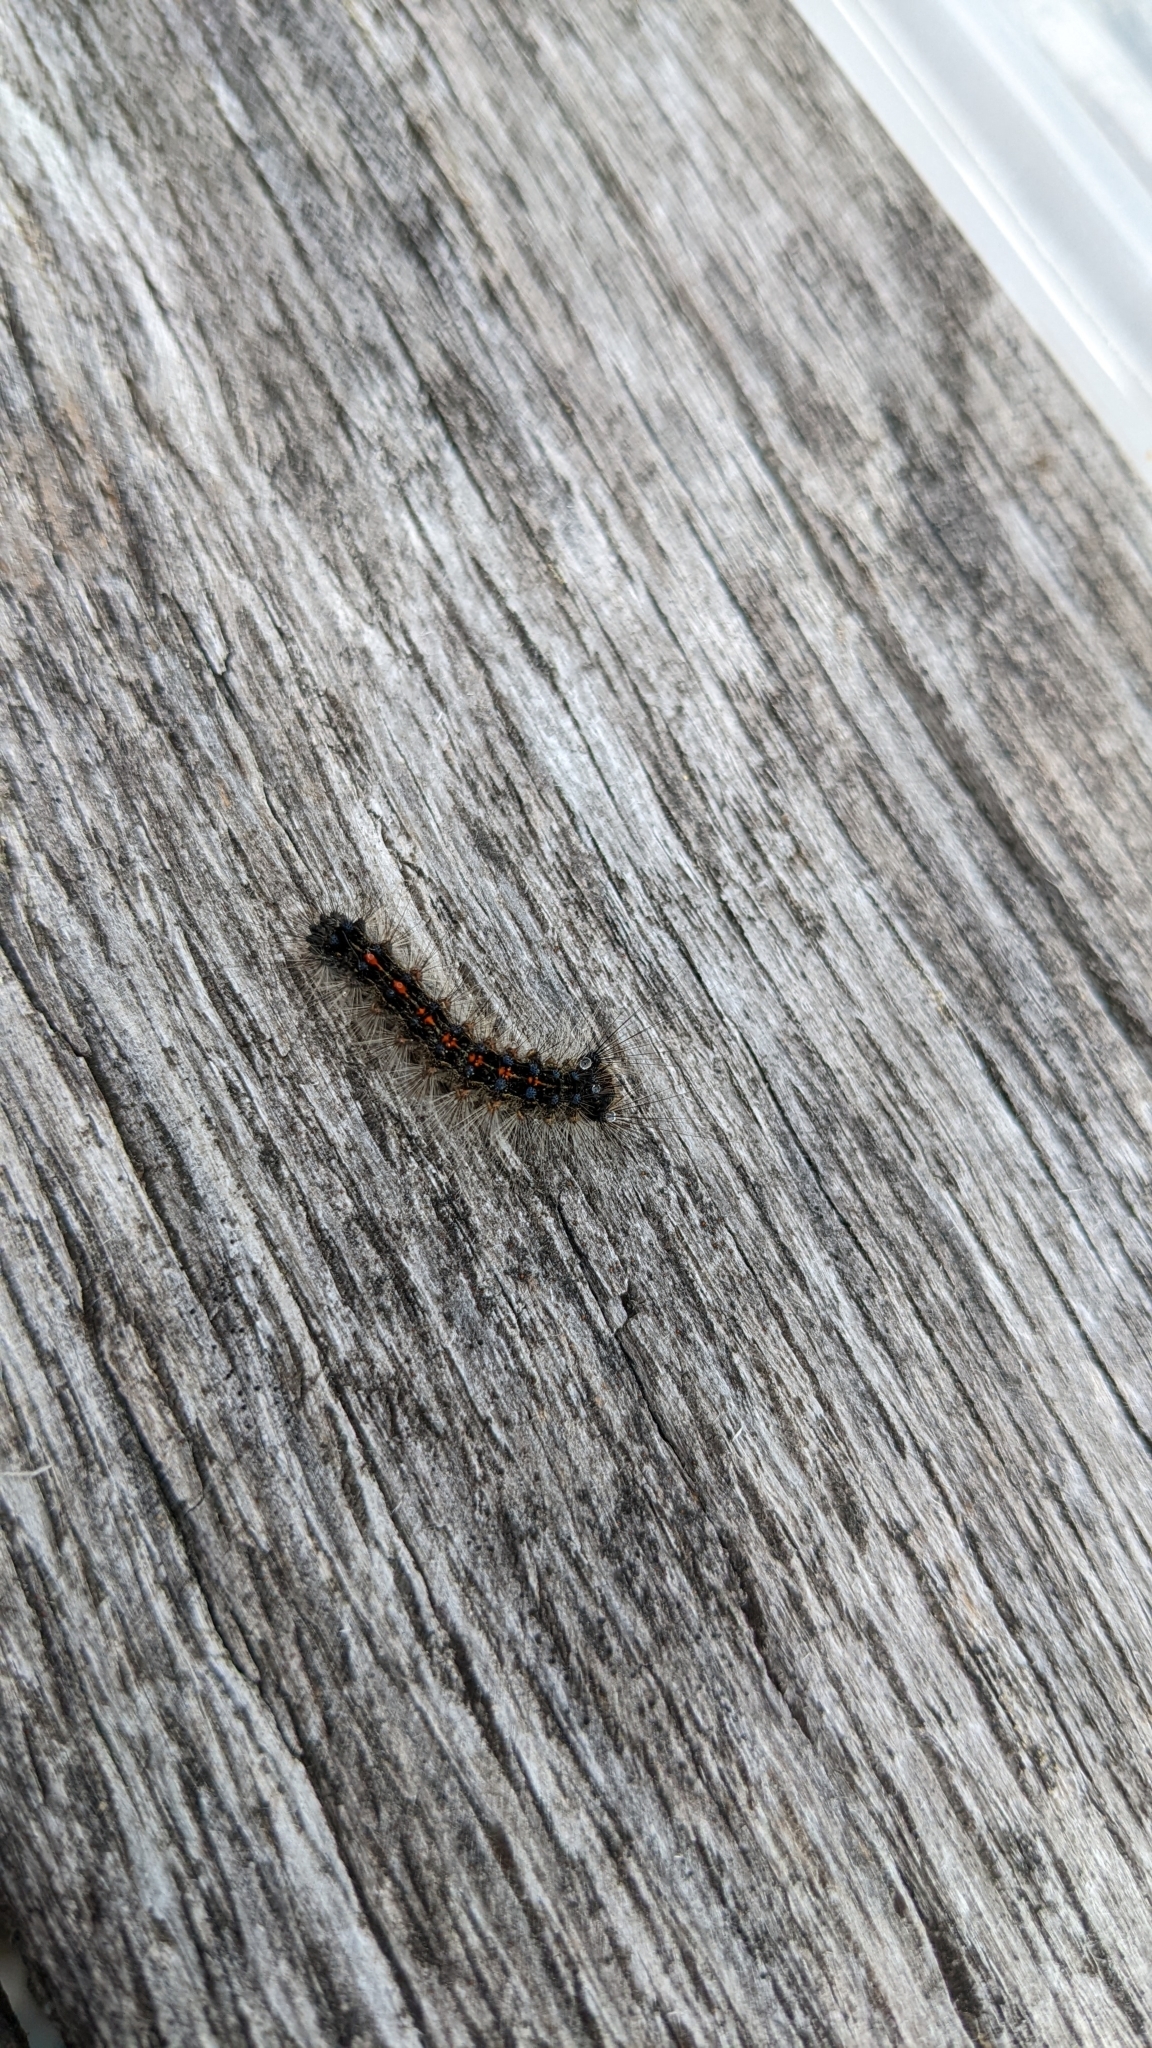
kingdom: Animalia
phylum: Arthropoda
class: Insecta
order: Lepidoptera
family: Erebidae
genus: Lymantria
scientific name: Lymantria dispar
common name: Gypsy moth
